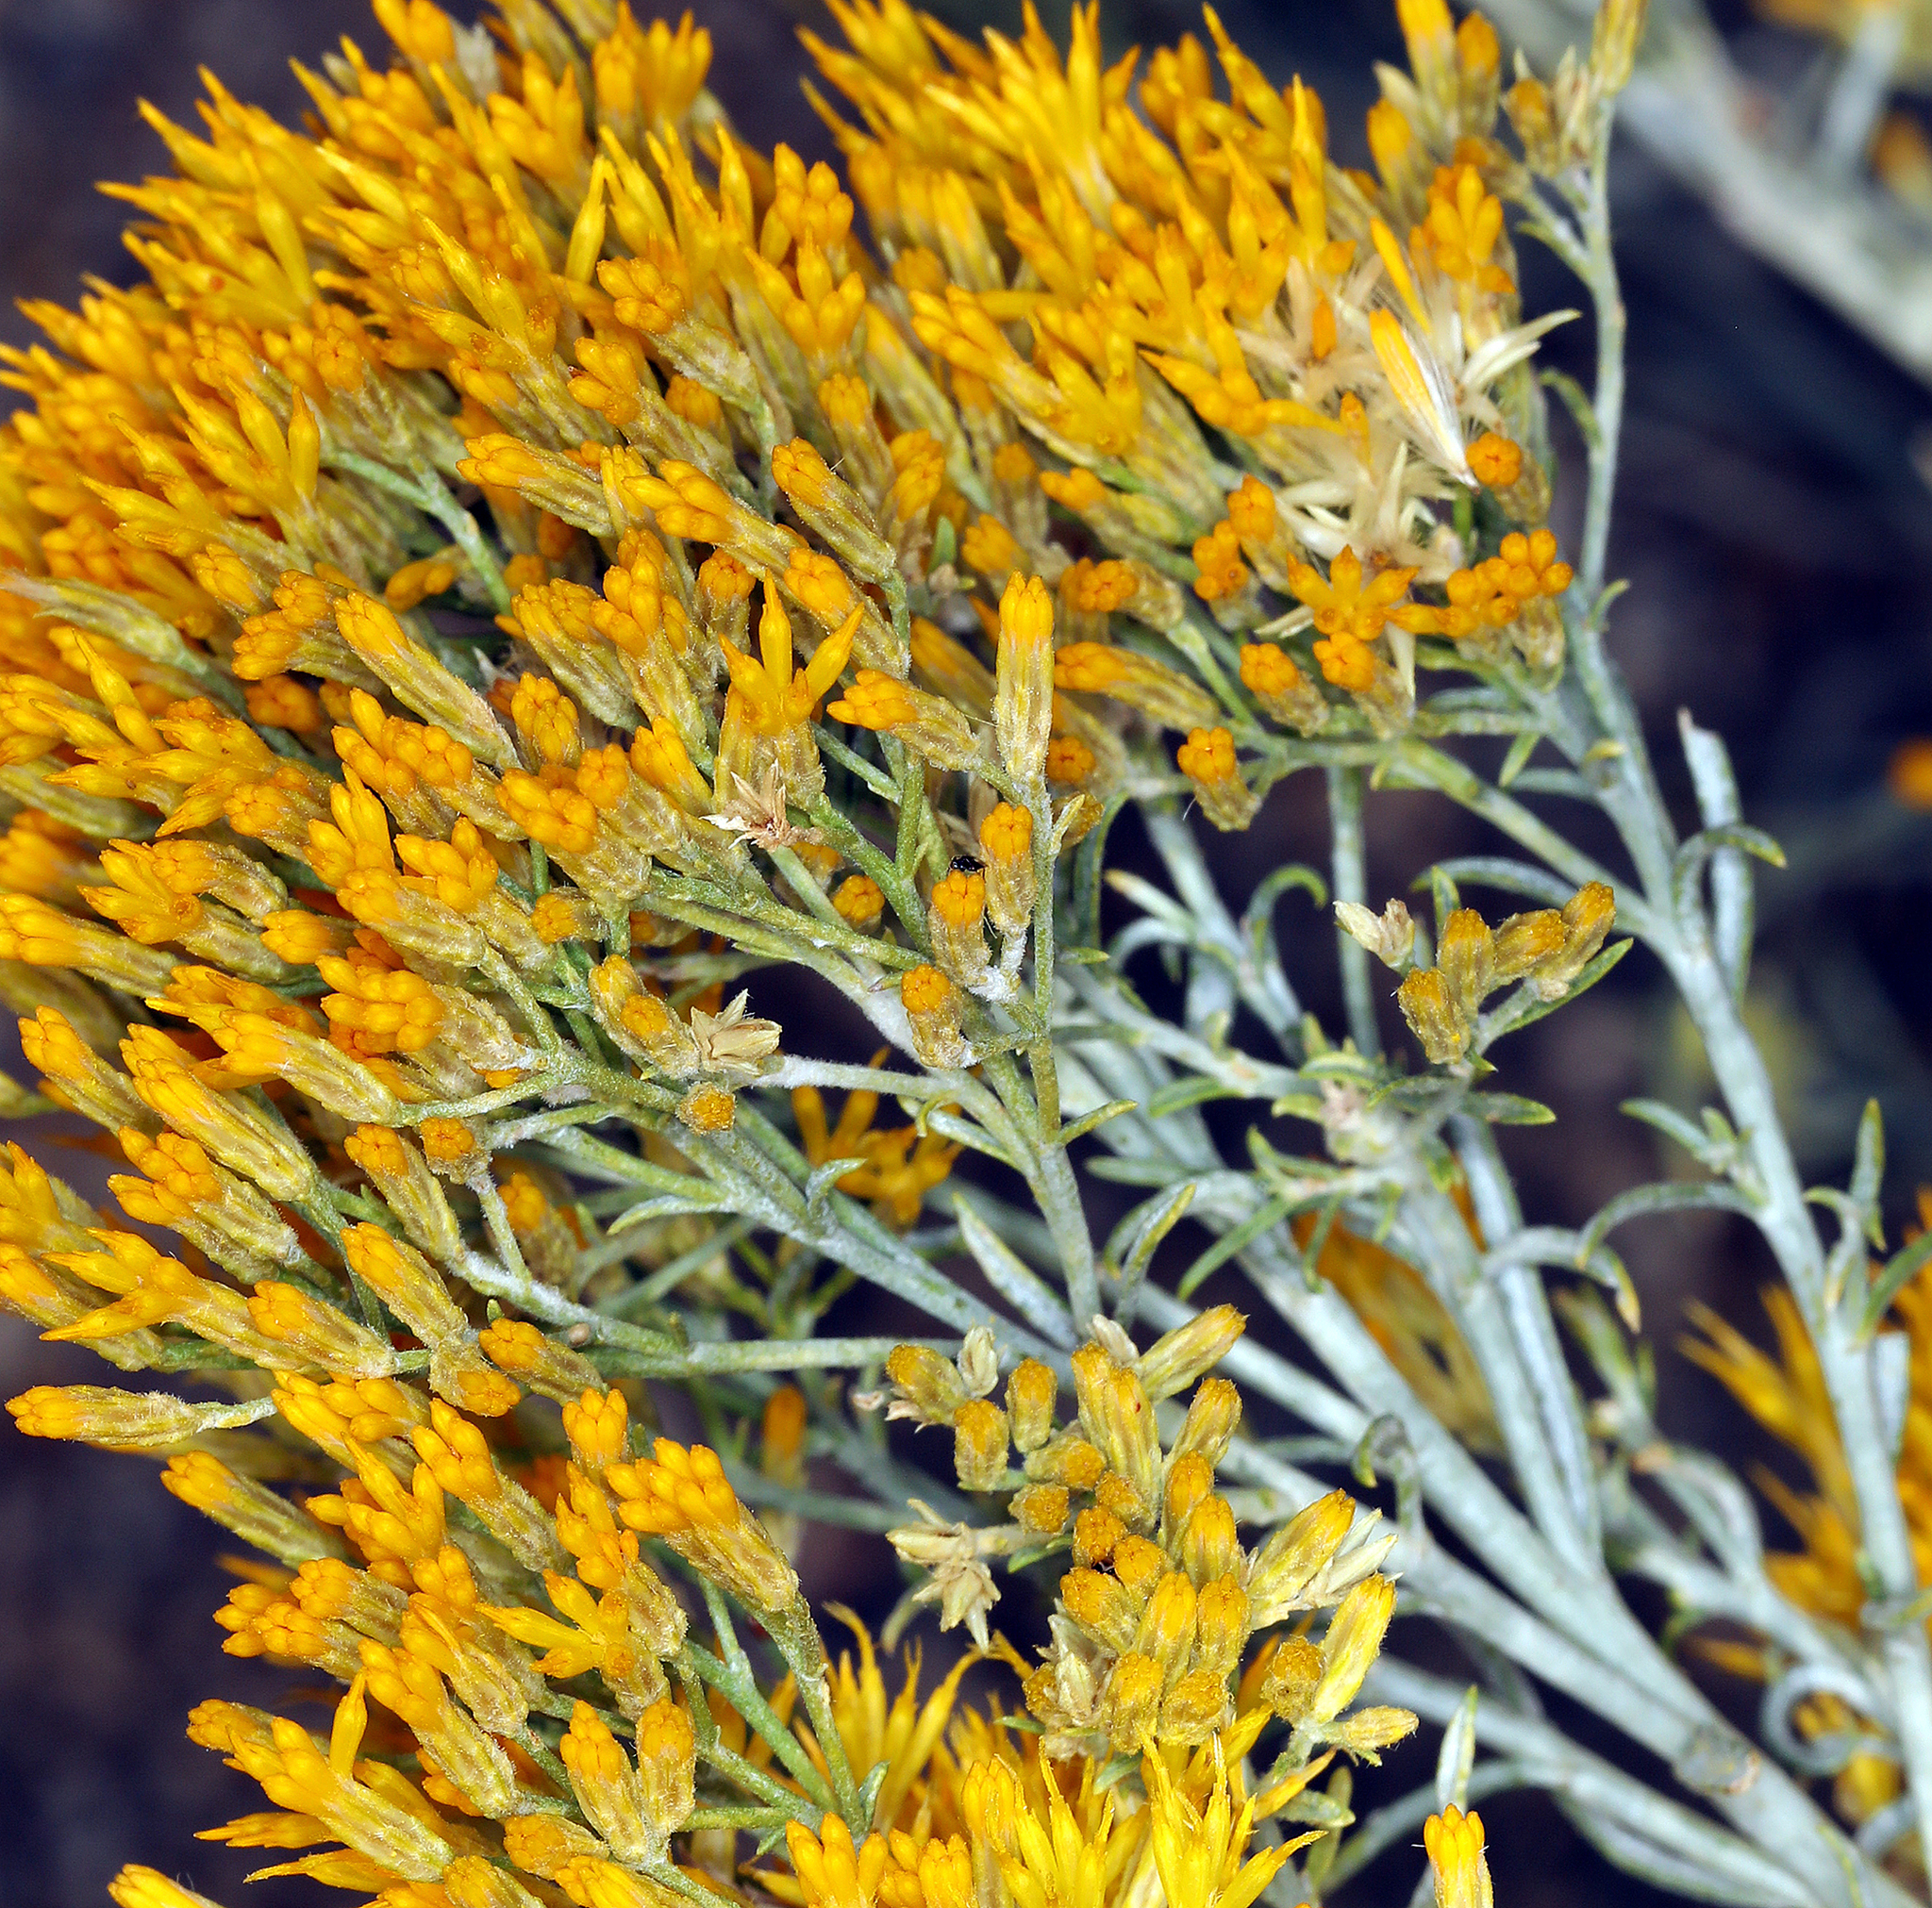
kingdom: Plantae
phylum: Tracheophyta
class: Magnoliopsida
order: Asterales
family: Asteraceae
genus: Ericameria
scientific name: Ericameria nauseosa
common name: Rubber rabbitbrush
